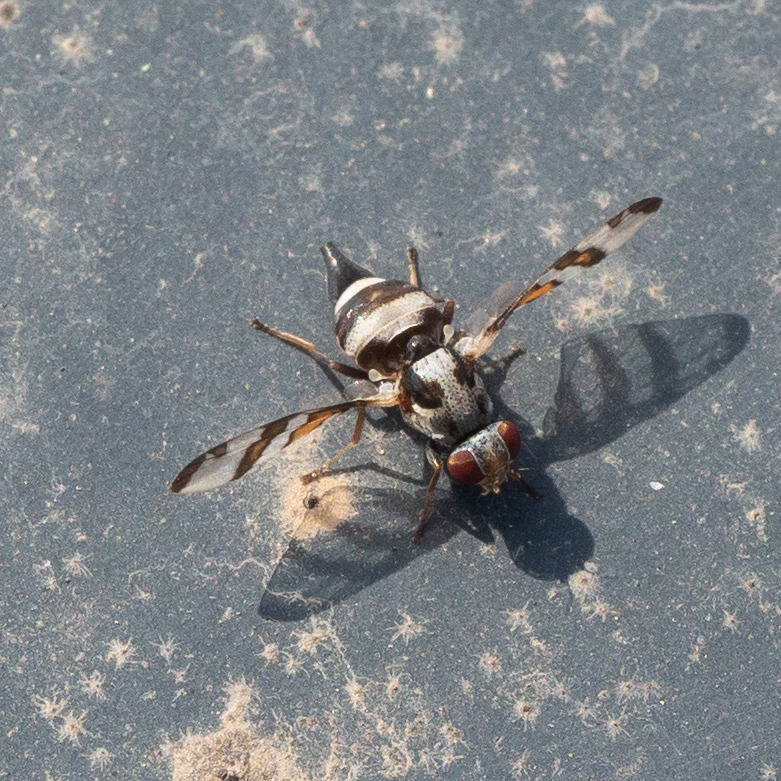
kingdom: Animalia
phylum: Arthropoda
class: Insecta
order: Diptera
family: Ulidiidae
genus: Myennis
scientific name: Myennis octopunctata
